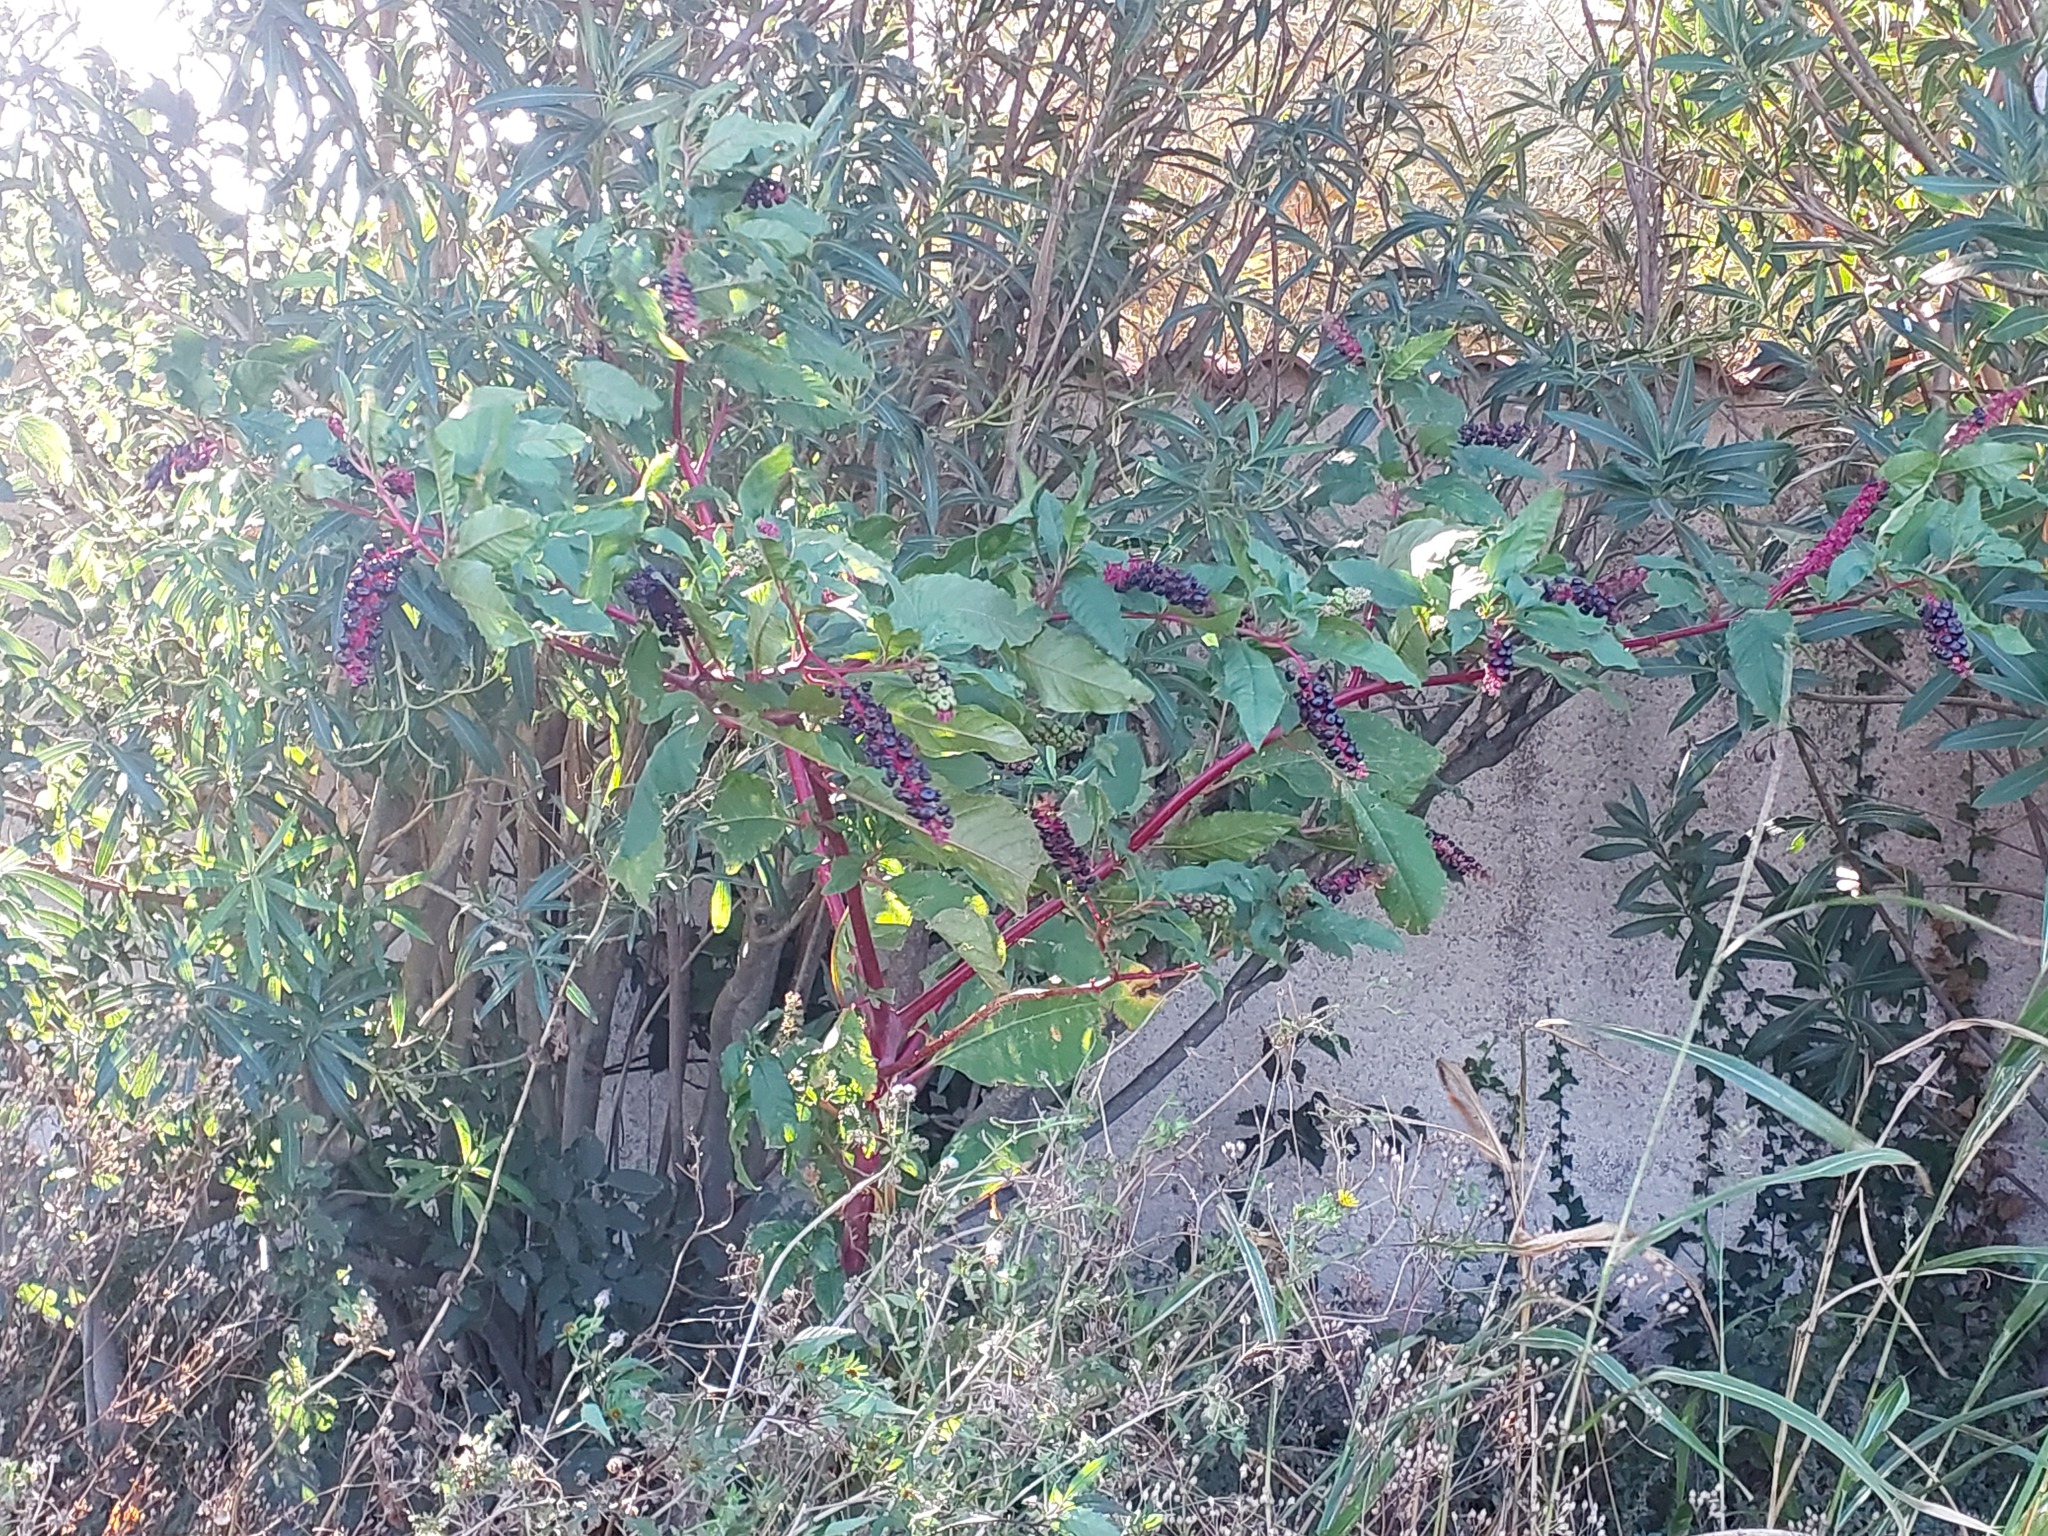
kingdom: Plantae
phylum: Tracheophyta
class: Magnoliopsida
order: Caryophyllales
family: Phytolaccaceae
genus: Phytolacca
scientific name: Phytolacca americana
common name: American pokeweed
